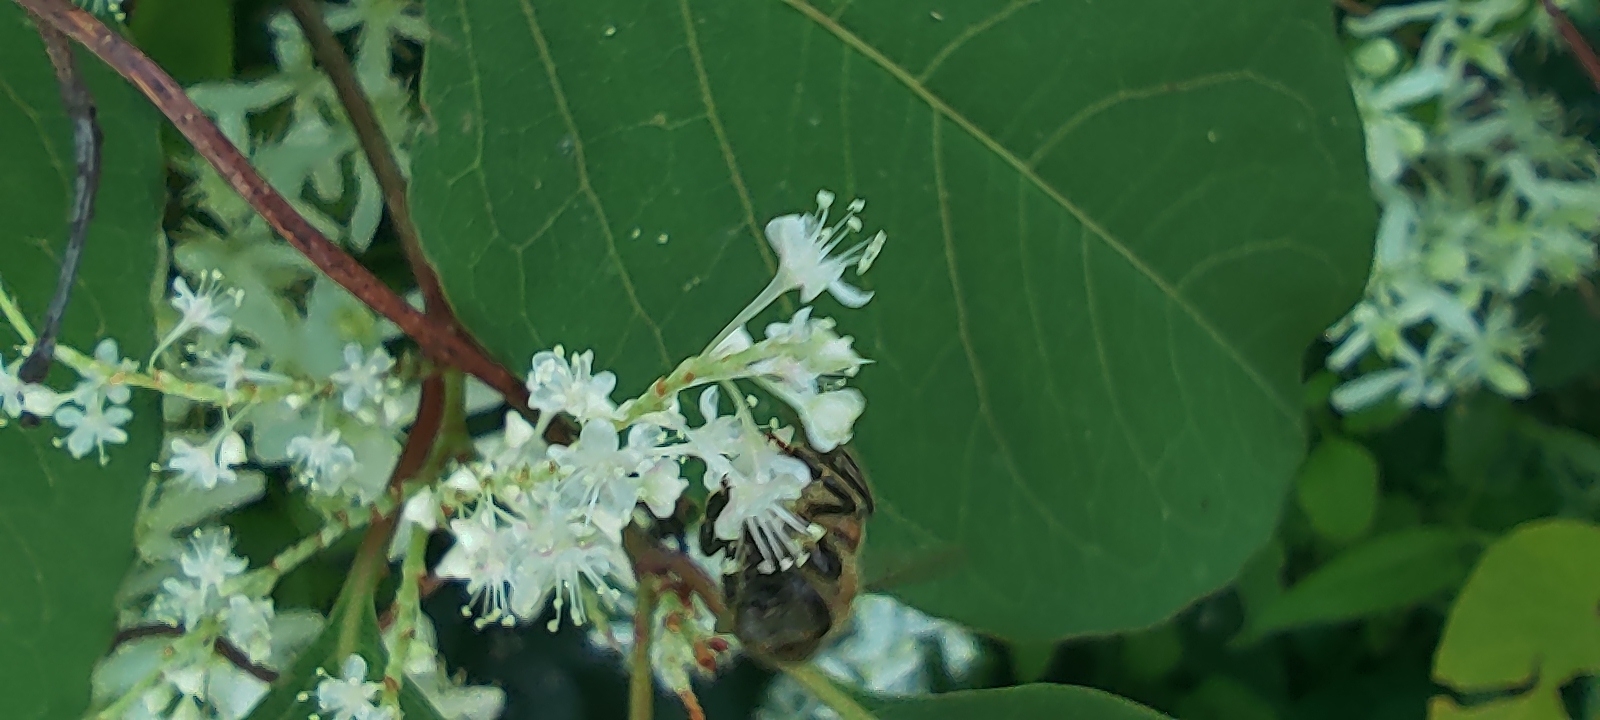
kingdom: Animalia
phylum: Arthropoda
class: Insecta
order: Hymenoptera
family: Apidae
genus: Apis
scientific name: Apis mellifera
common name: Honey bee
